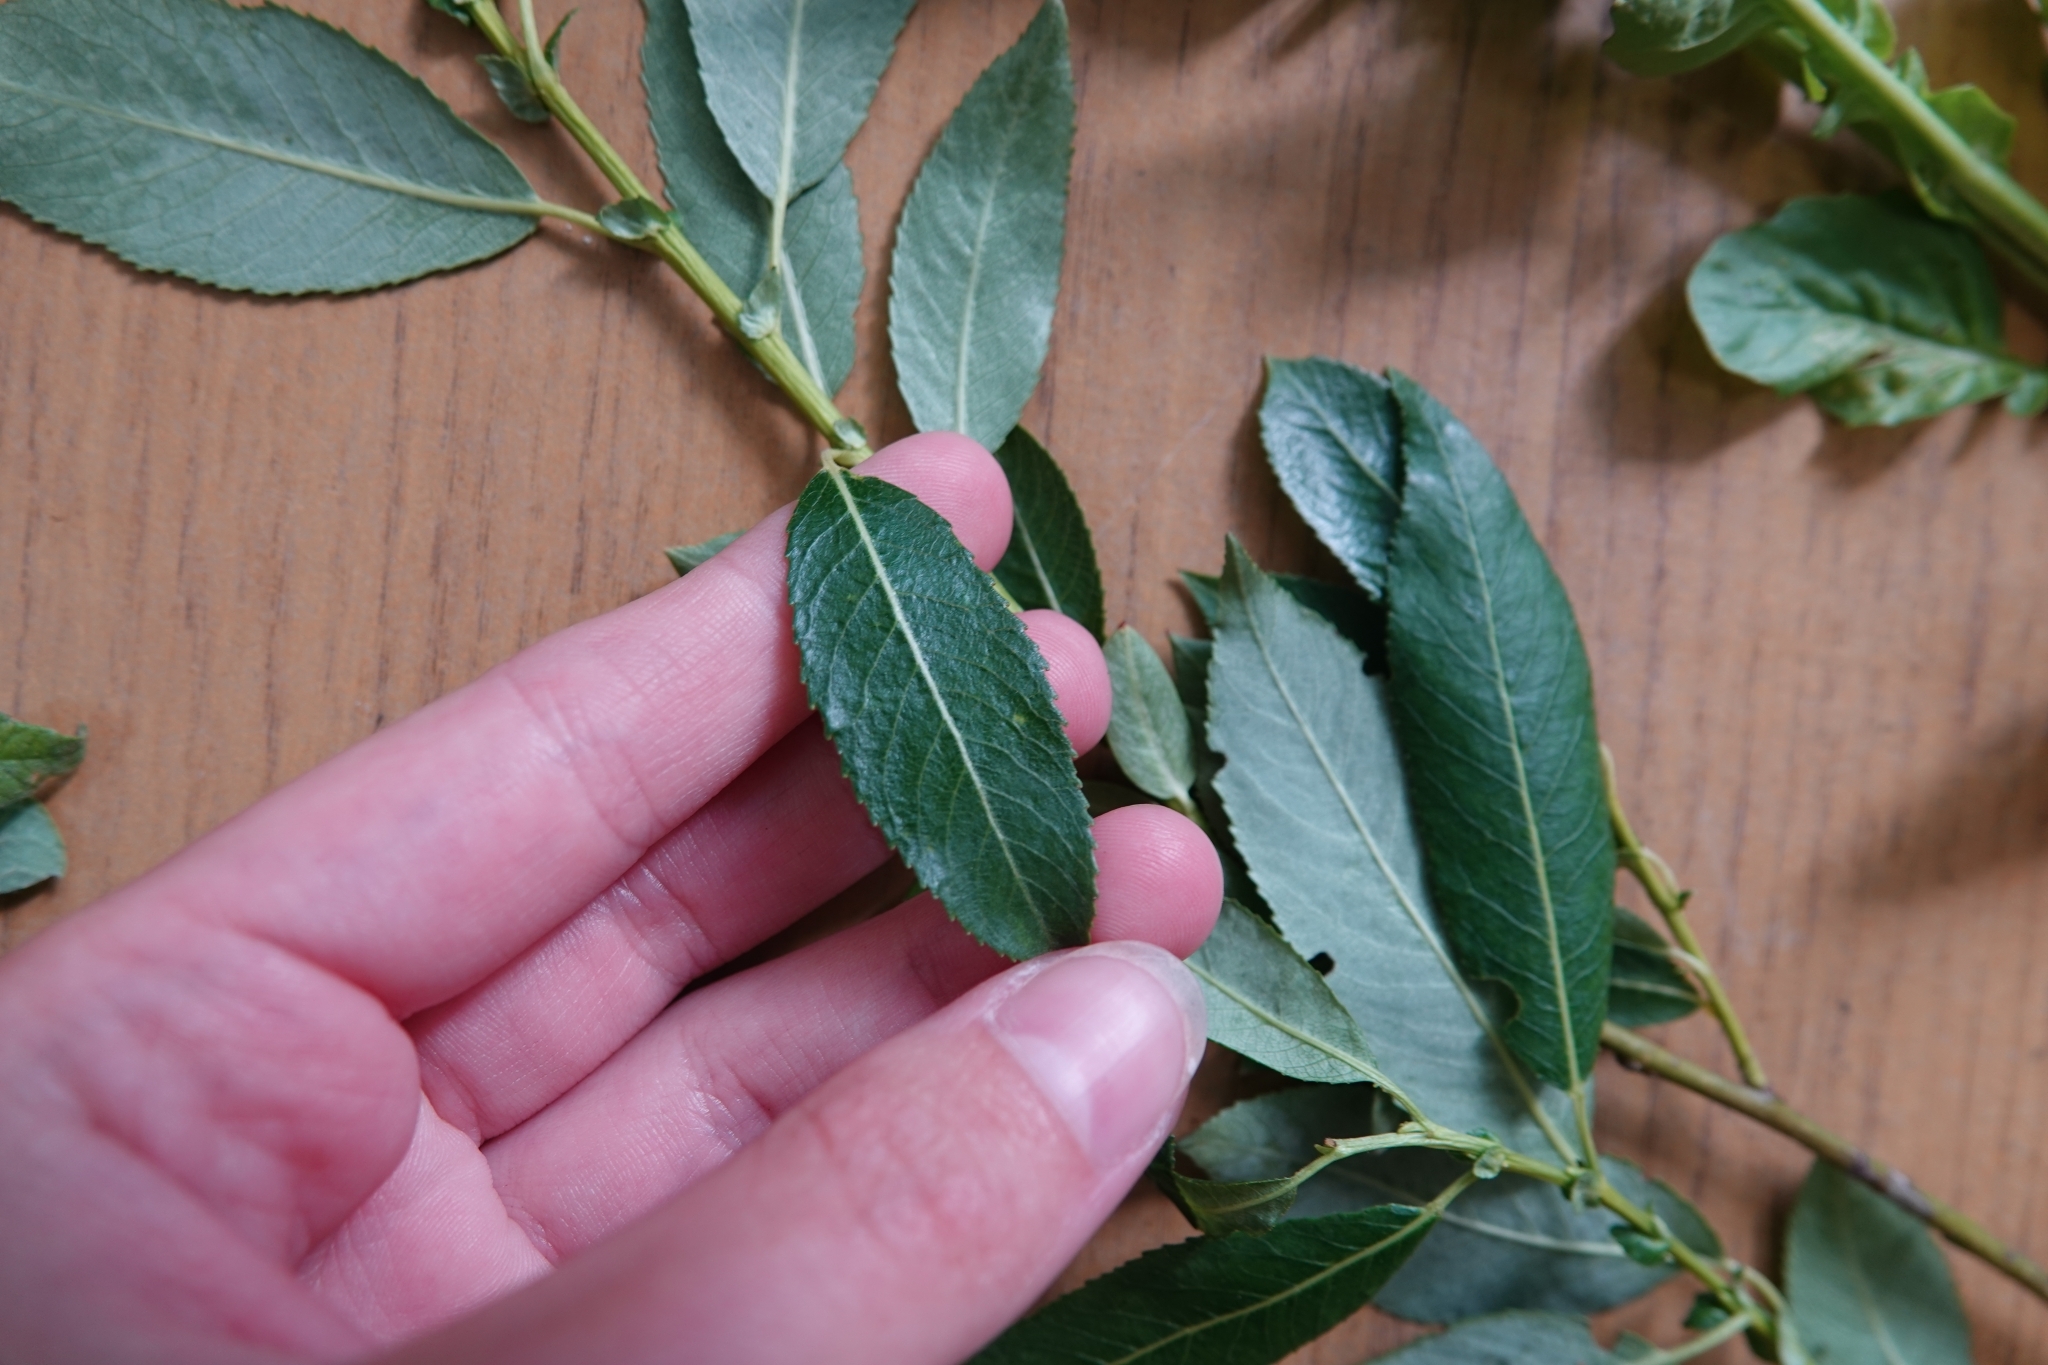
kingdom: Plantae
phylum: Tracheophyta
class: Magnoliopsida
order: Malpighiales
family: Salicaceae
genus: Salix
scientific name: Salix triandra
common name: Almond willow
